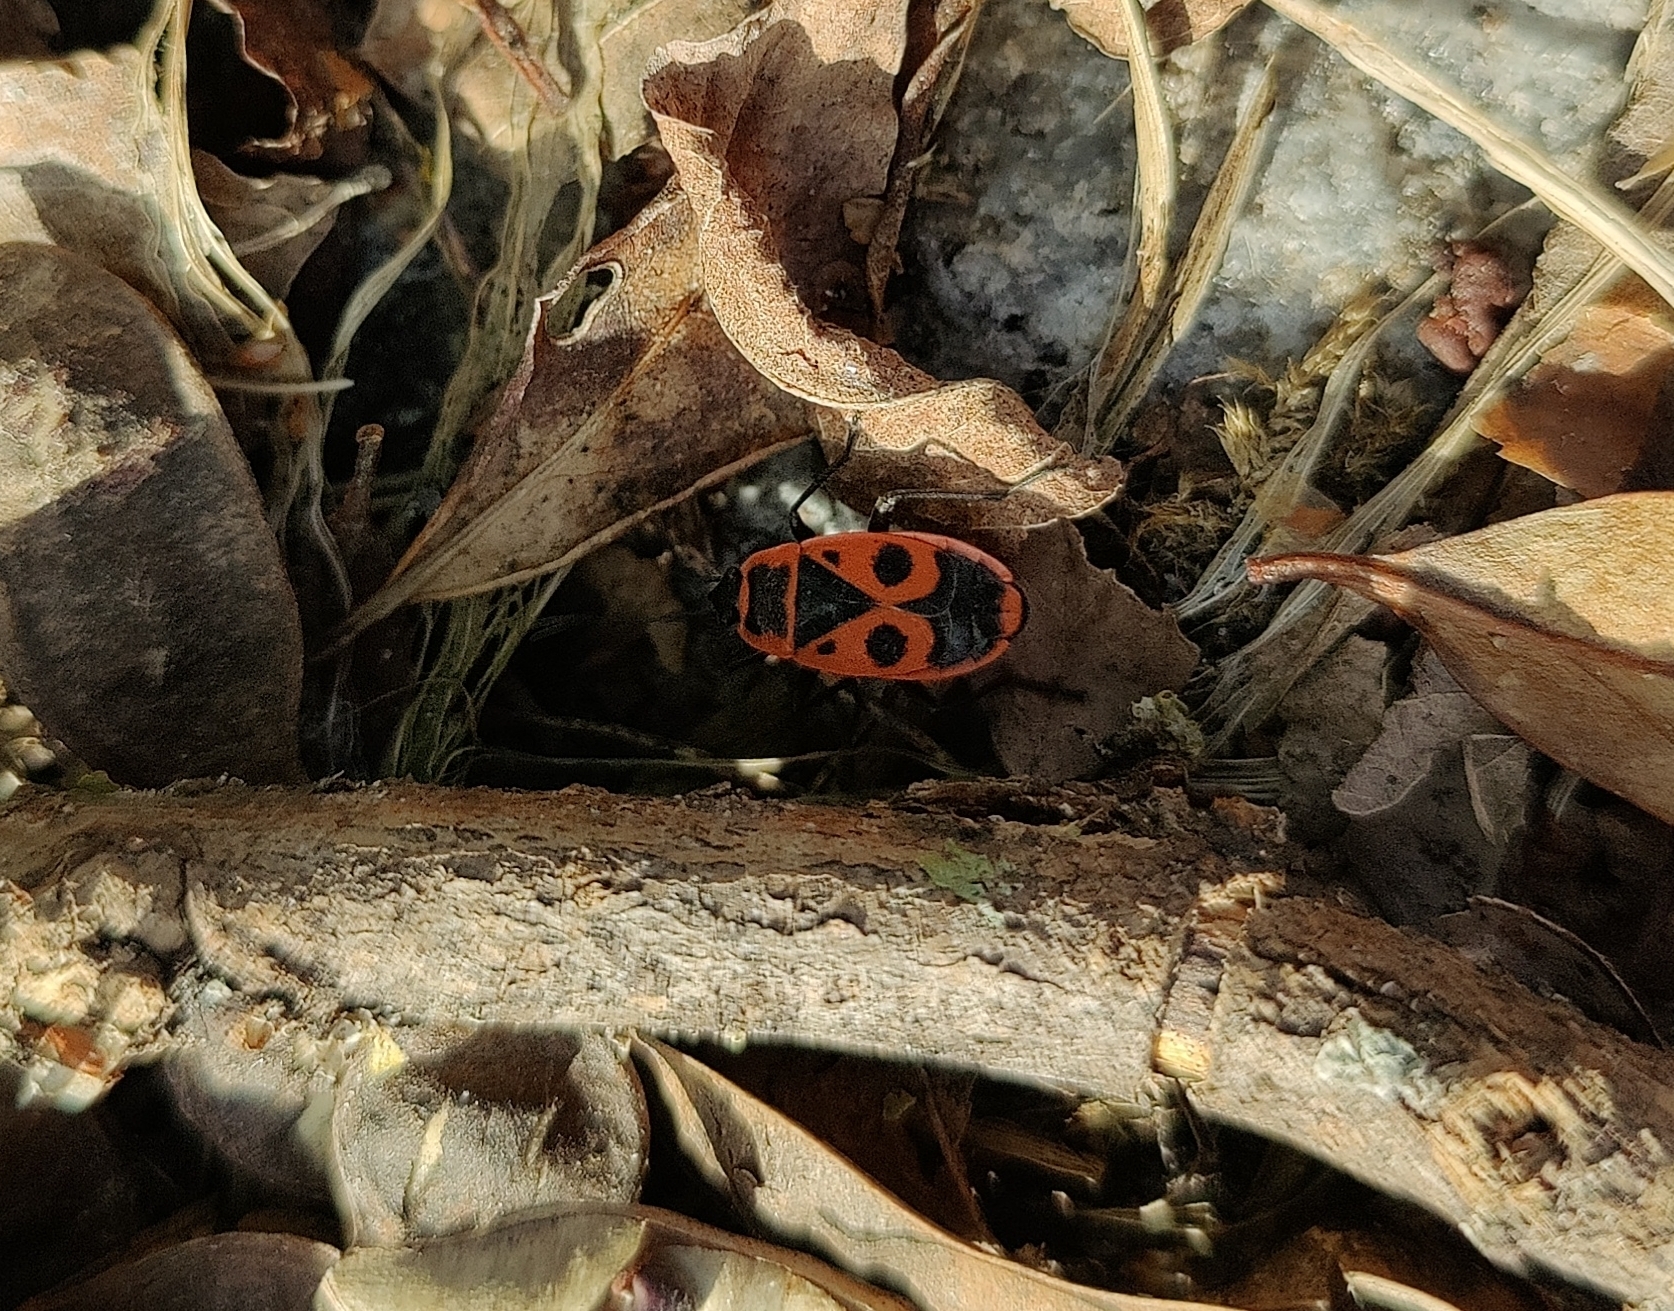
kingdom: Animalia
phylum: Arthropoda
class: Insecta
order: Hemiptera
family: Pyrrhocoridae
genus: Pyrrhocoris
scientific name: Pyrrhocoris apterus
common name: Firebug
